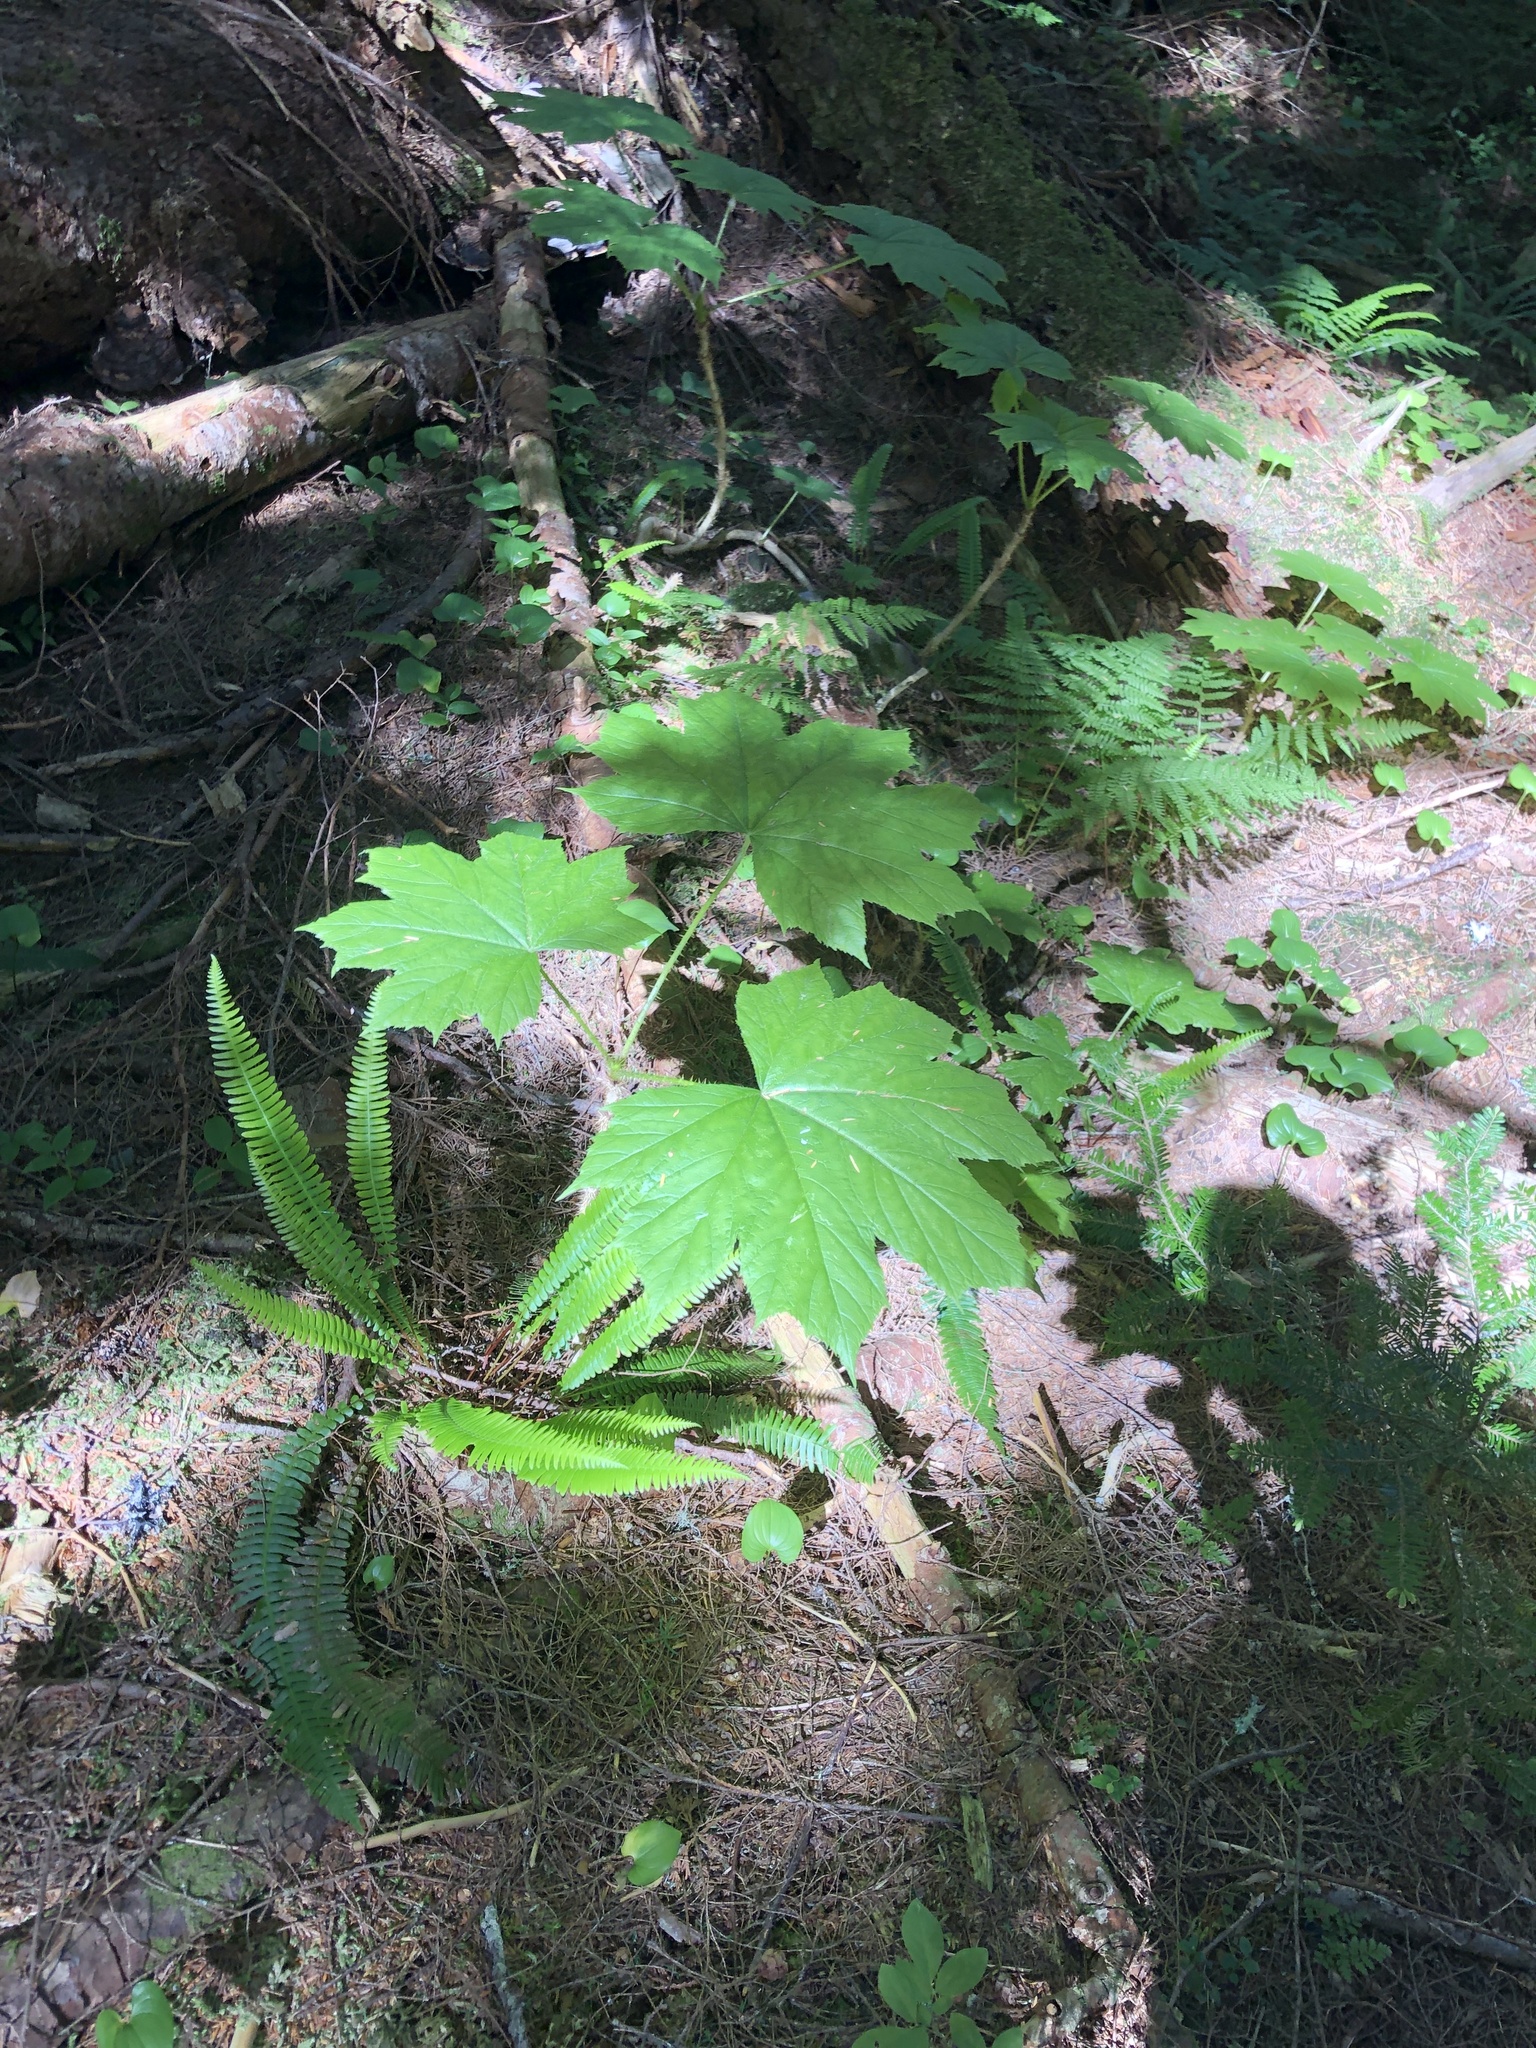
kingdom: Plantae
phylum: Tracheophyta
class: Magnoliopsida
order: Apiales
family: Araliaceae
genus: Oplopanax
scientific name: Oplopanax horridus
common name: Devil's walking-stick
